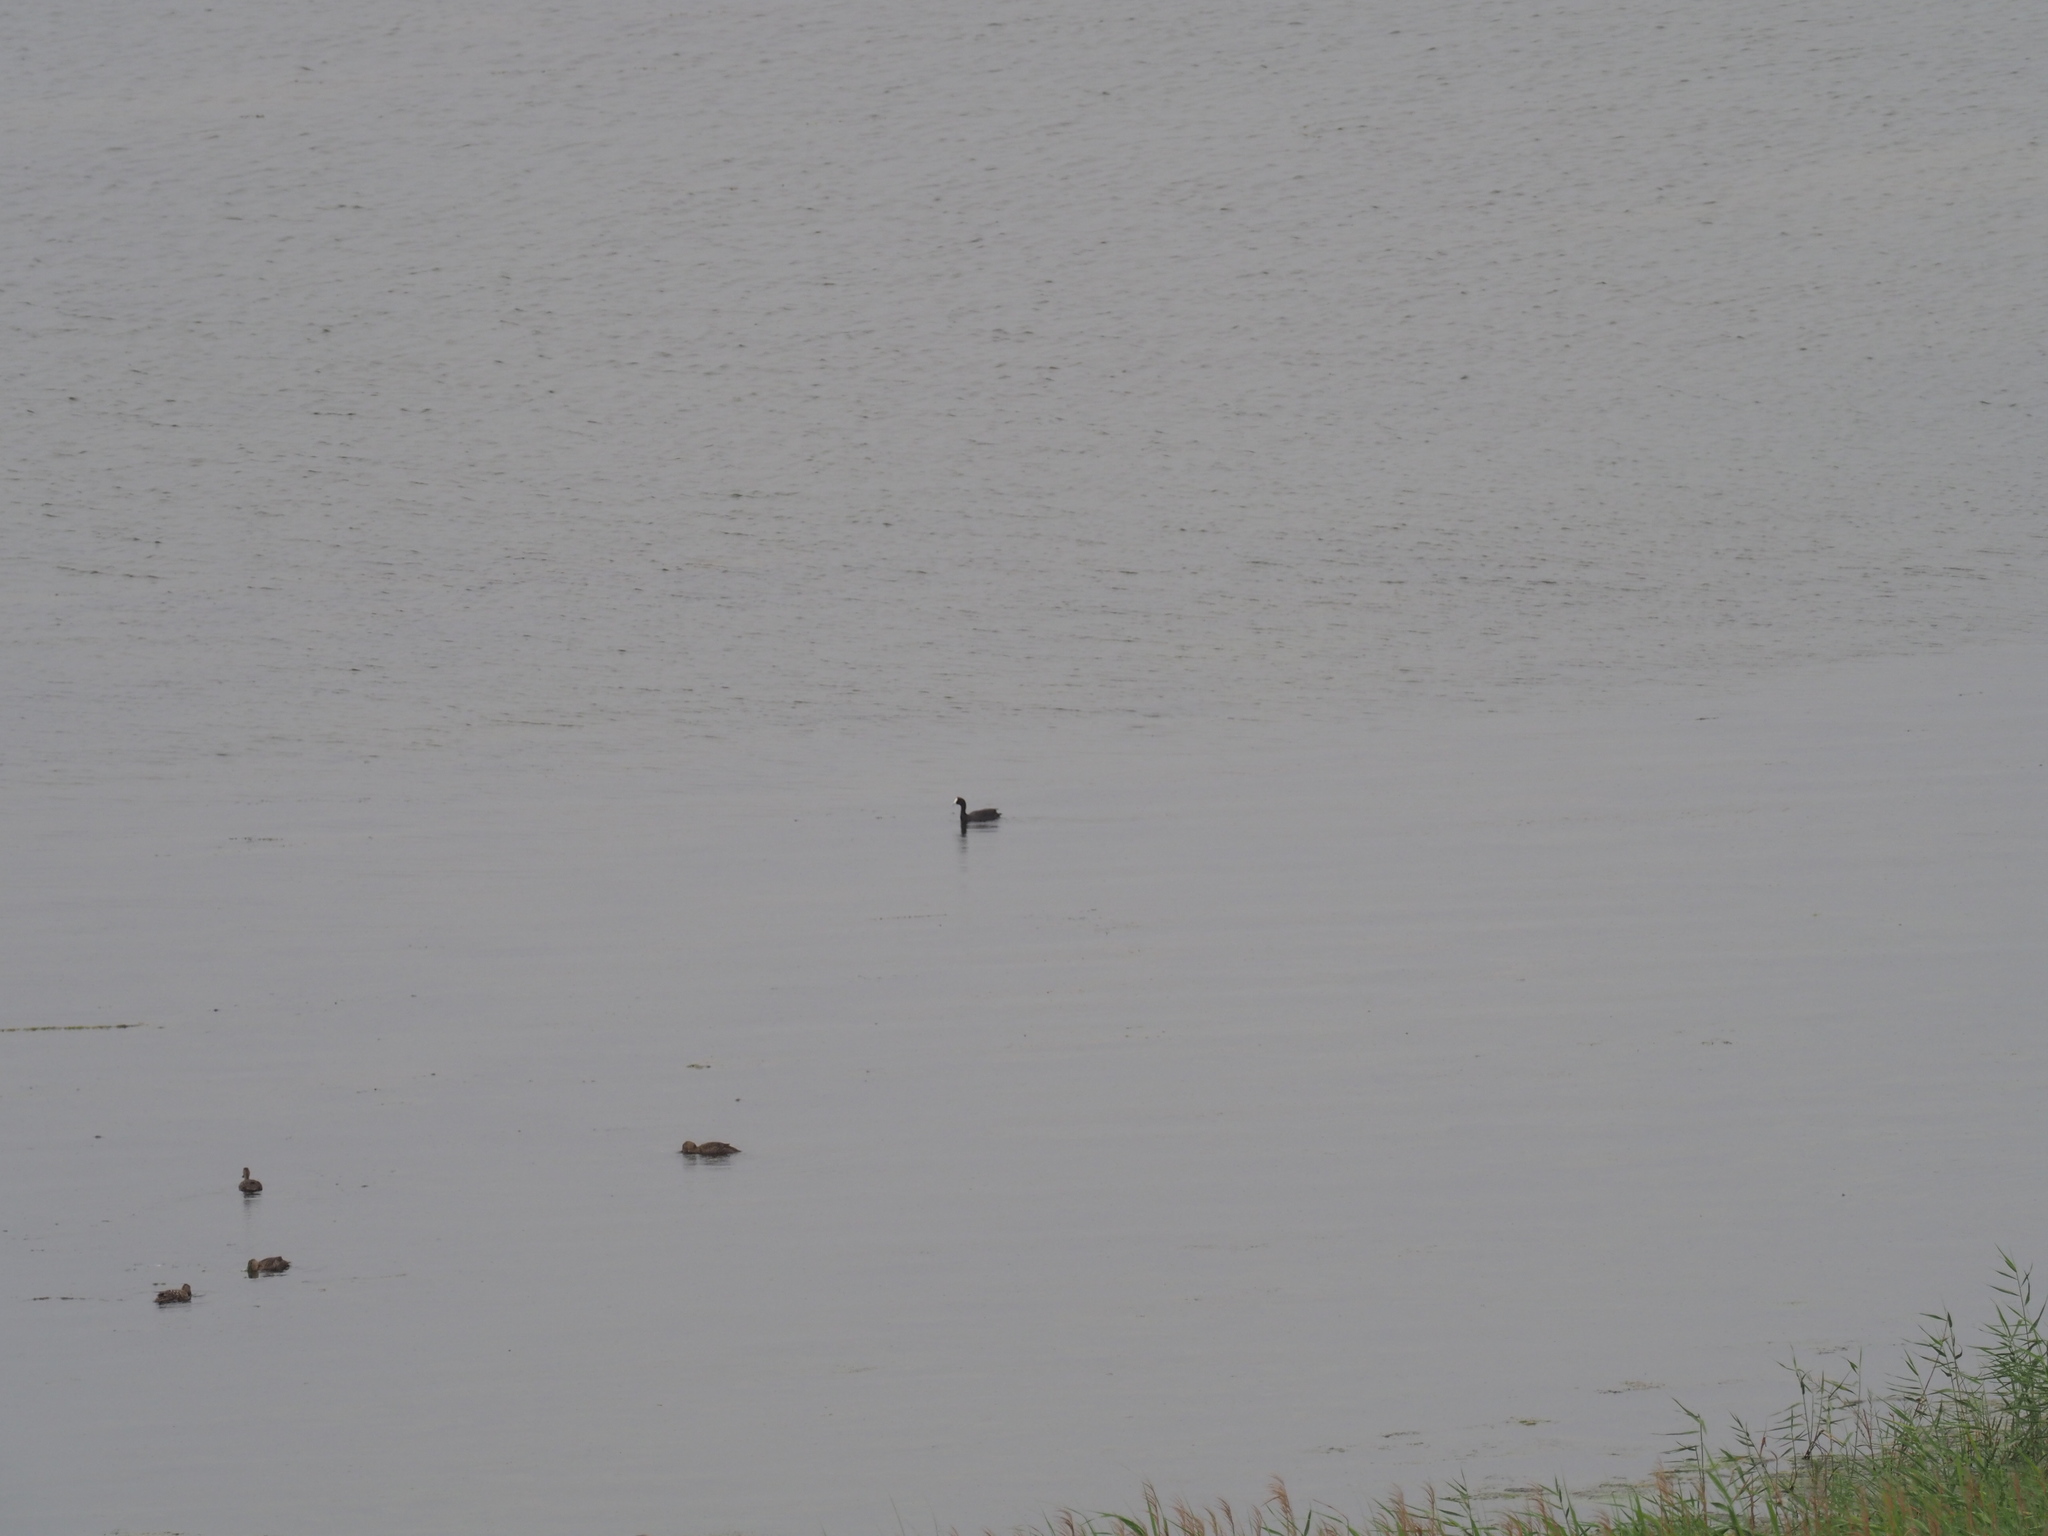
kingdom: Animalia
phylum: Chordata
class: Aves
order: Gruiformes
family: Rallidae
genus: Fulica
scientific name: Fulica cristata
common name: Red-knobbed coot
